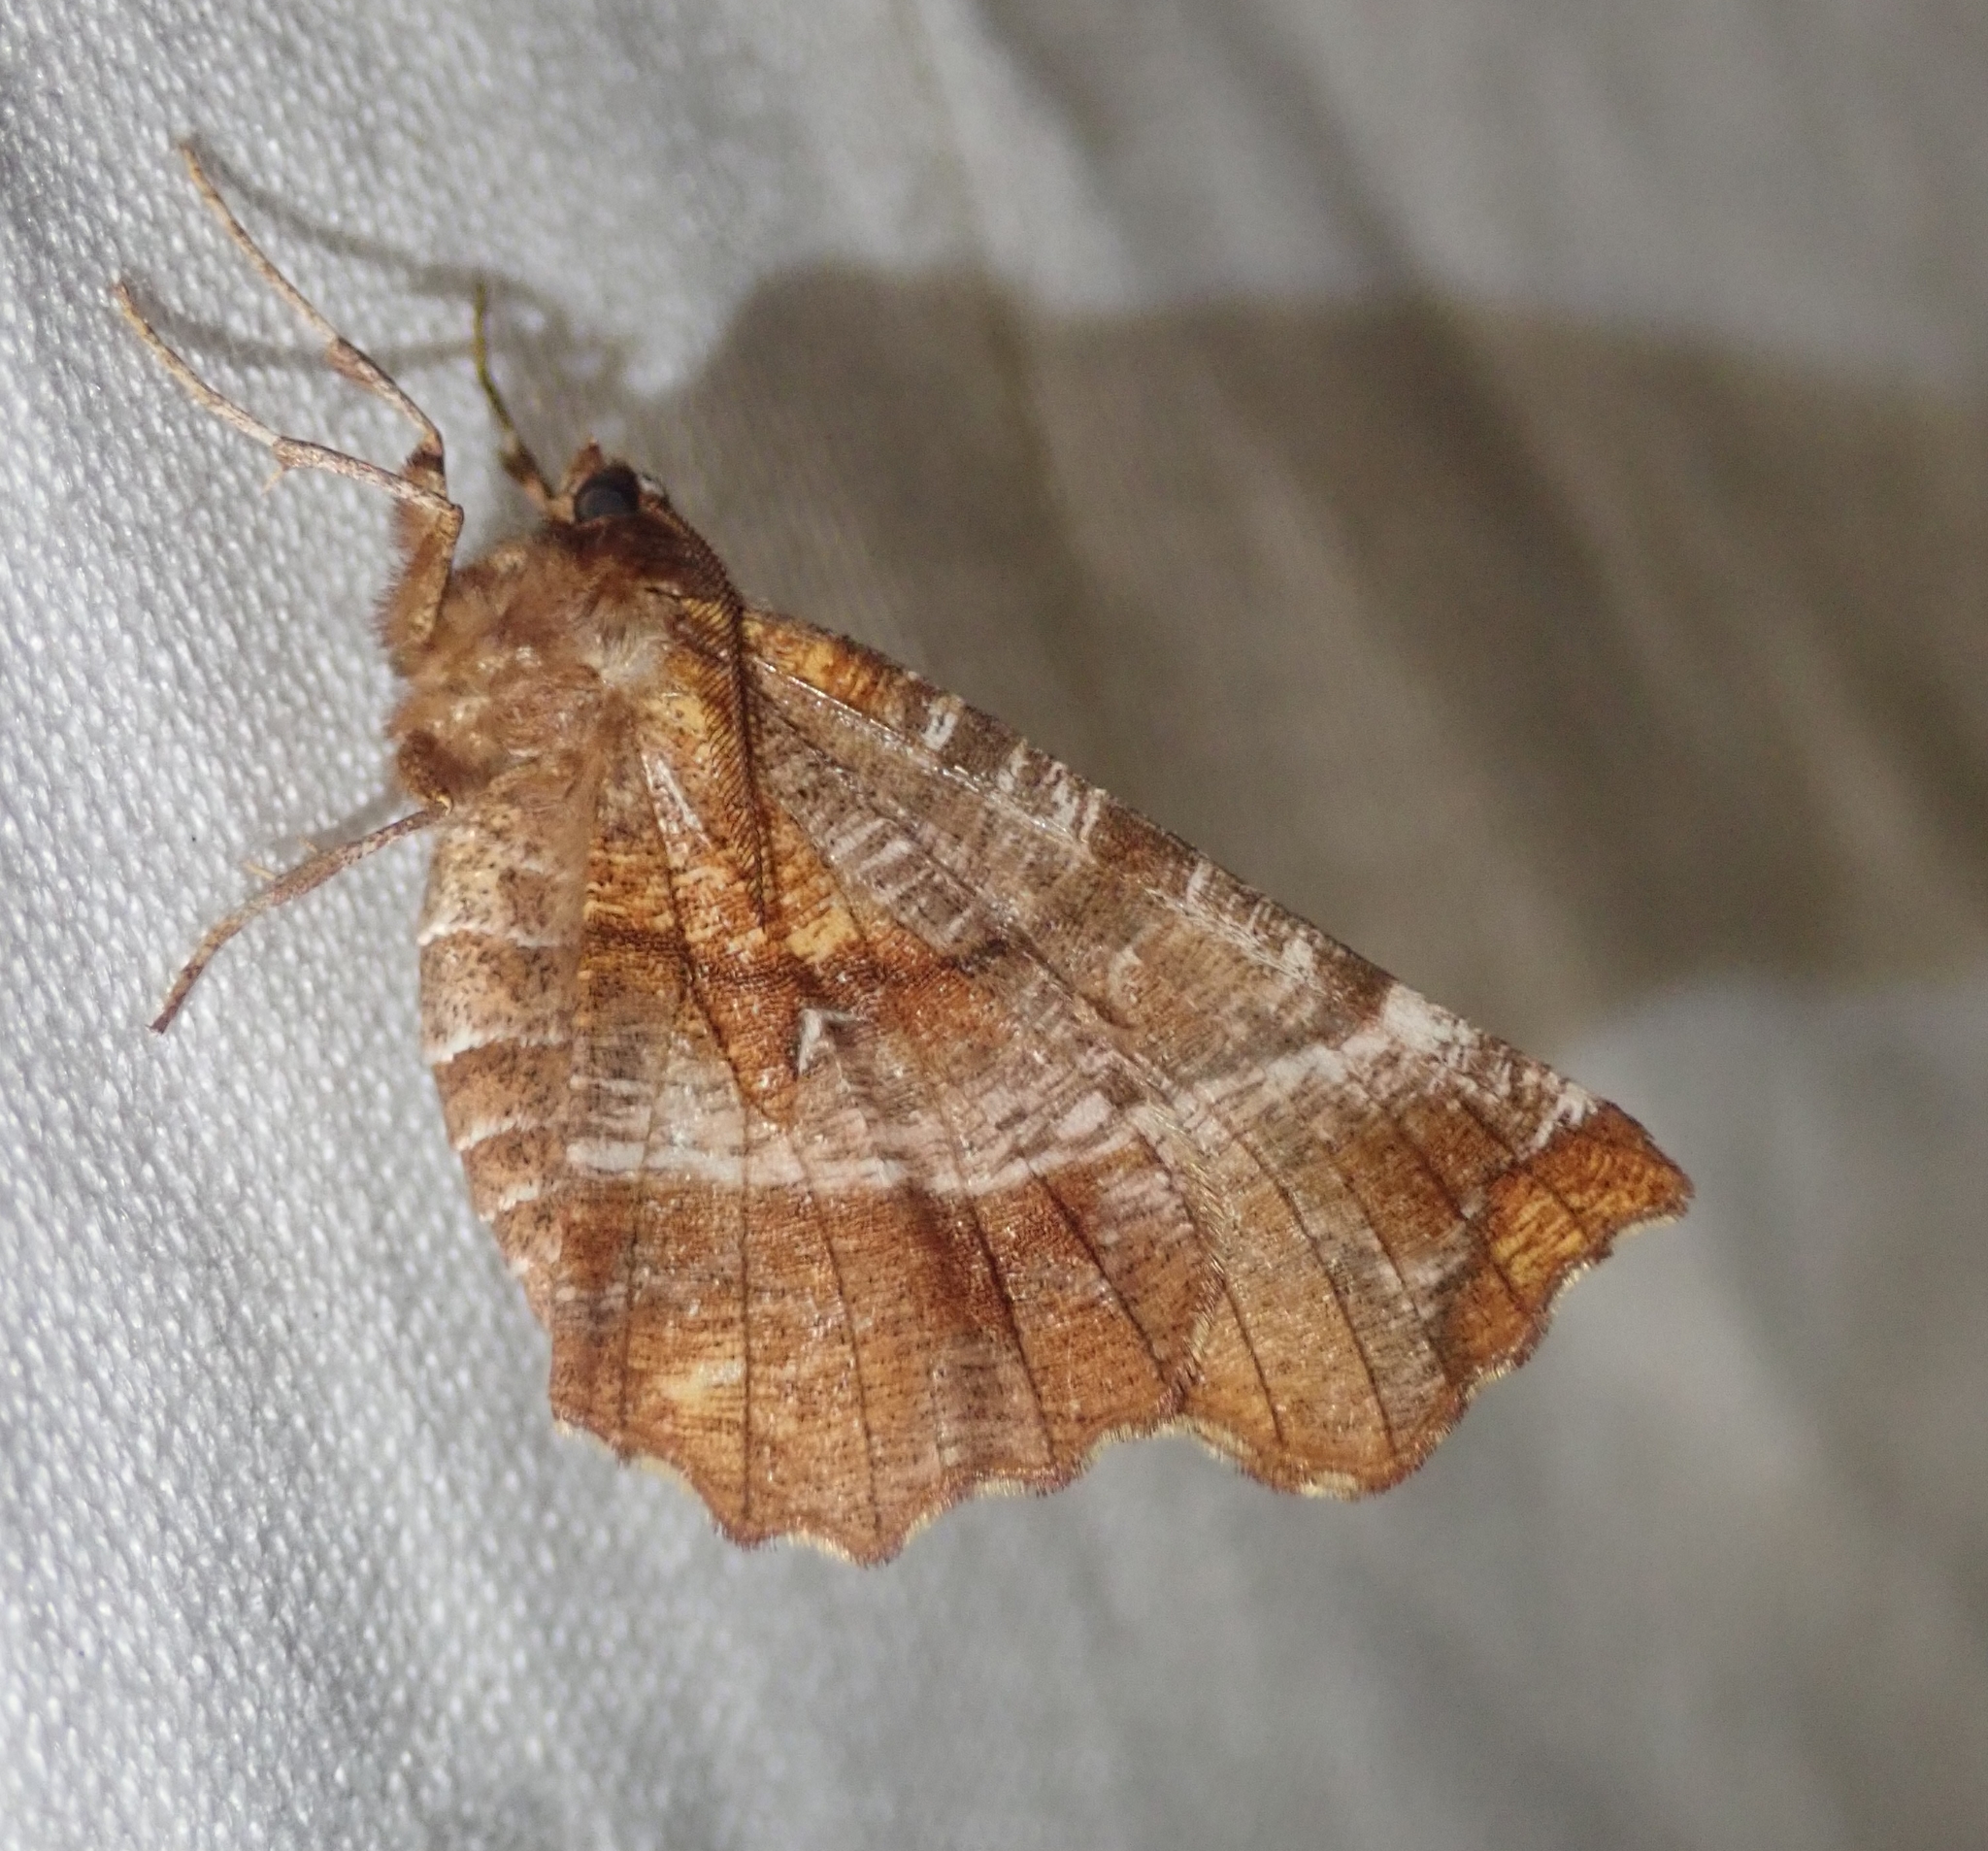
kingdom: Animalia
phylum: Arthropoda
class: Insecta
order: Lepidoptera
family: Geometridae
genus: Selenia
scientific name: Selenia dentaria
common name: Early thorn
